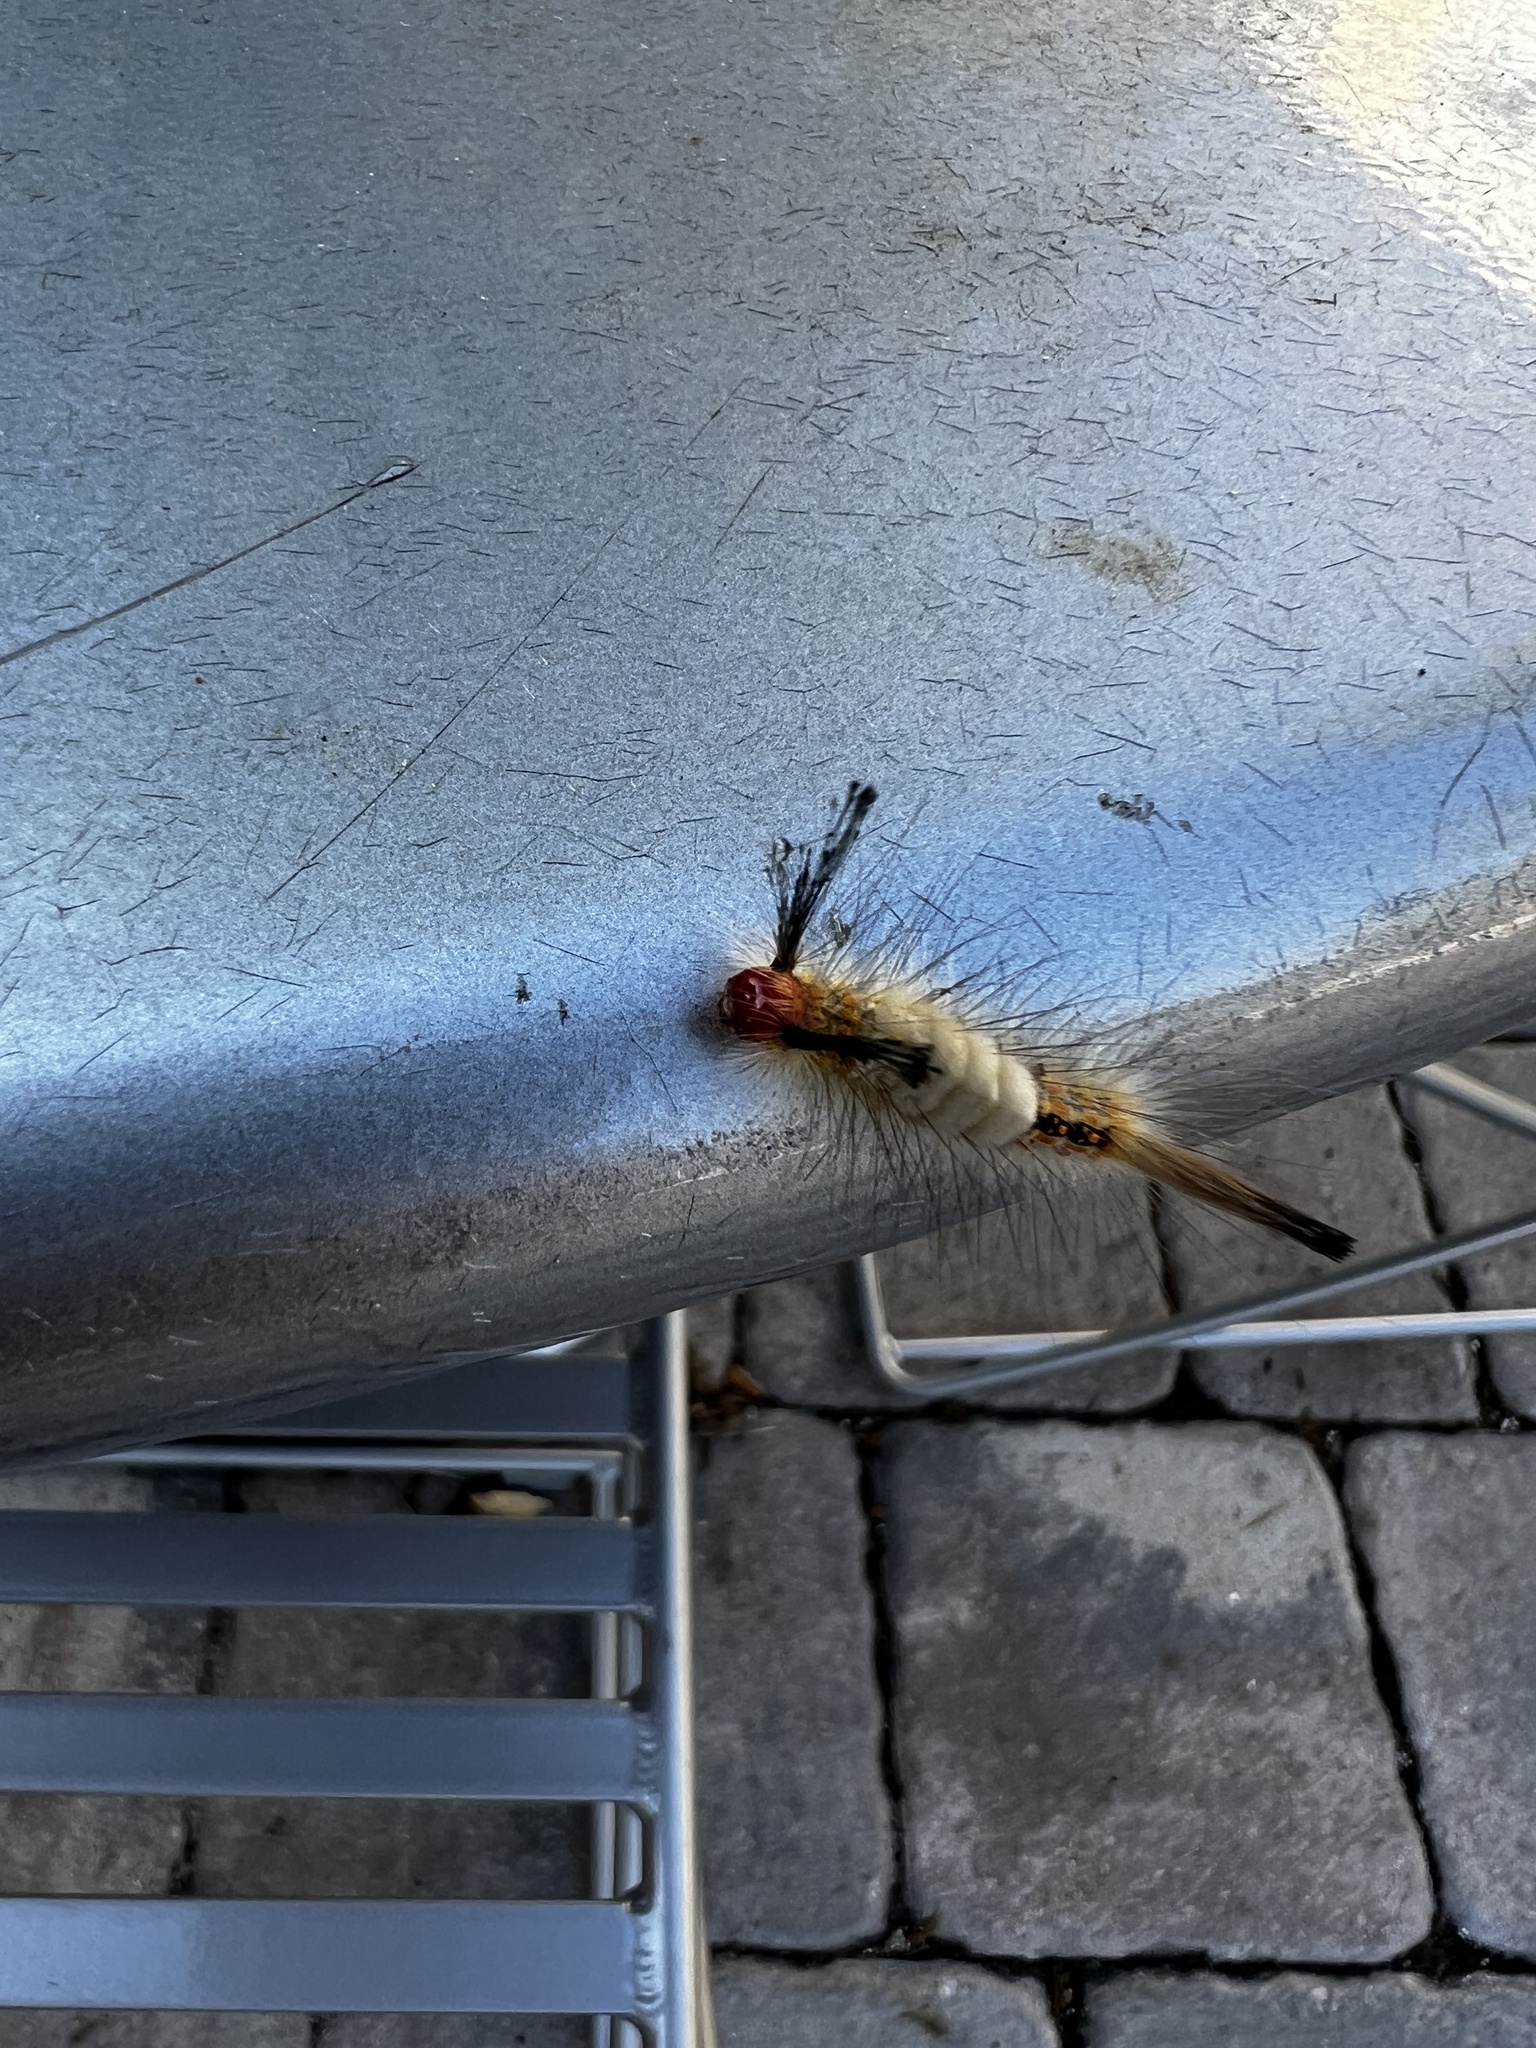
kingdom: Animalia
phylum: Arthropoda
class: Insecta
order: Lepidoptera
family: Erebidae
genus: Orgyia
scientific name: Orgyia detrita
